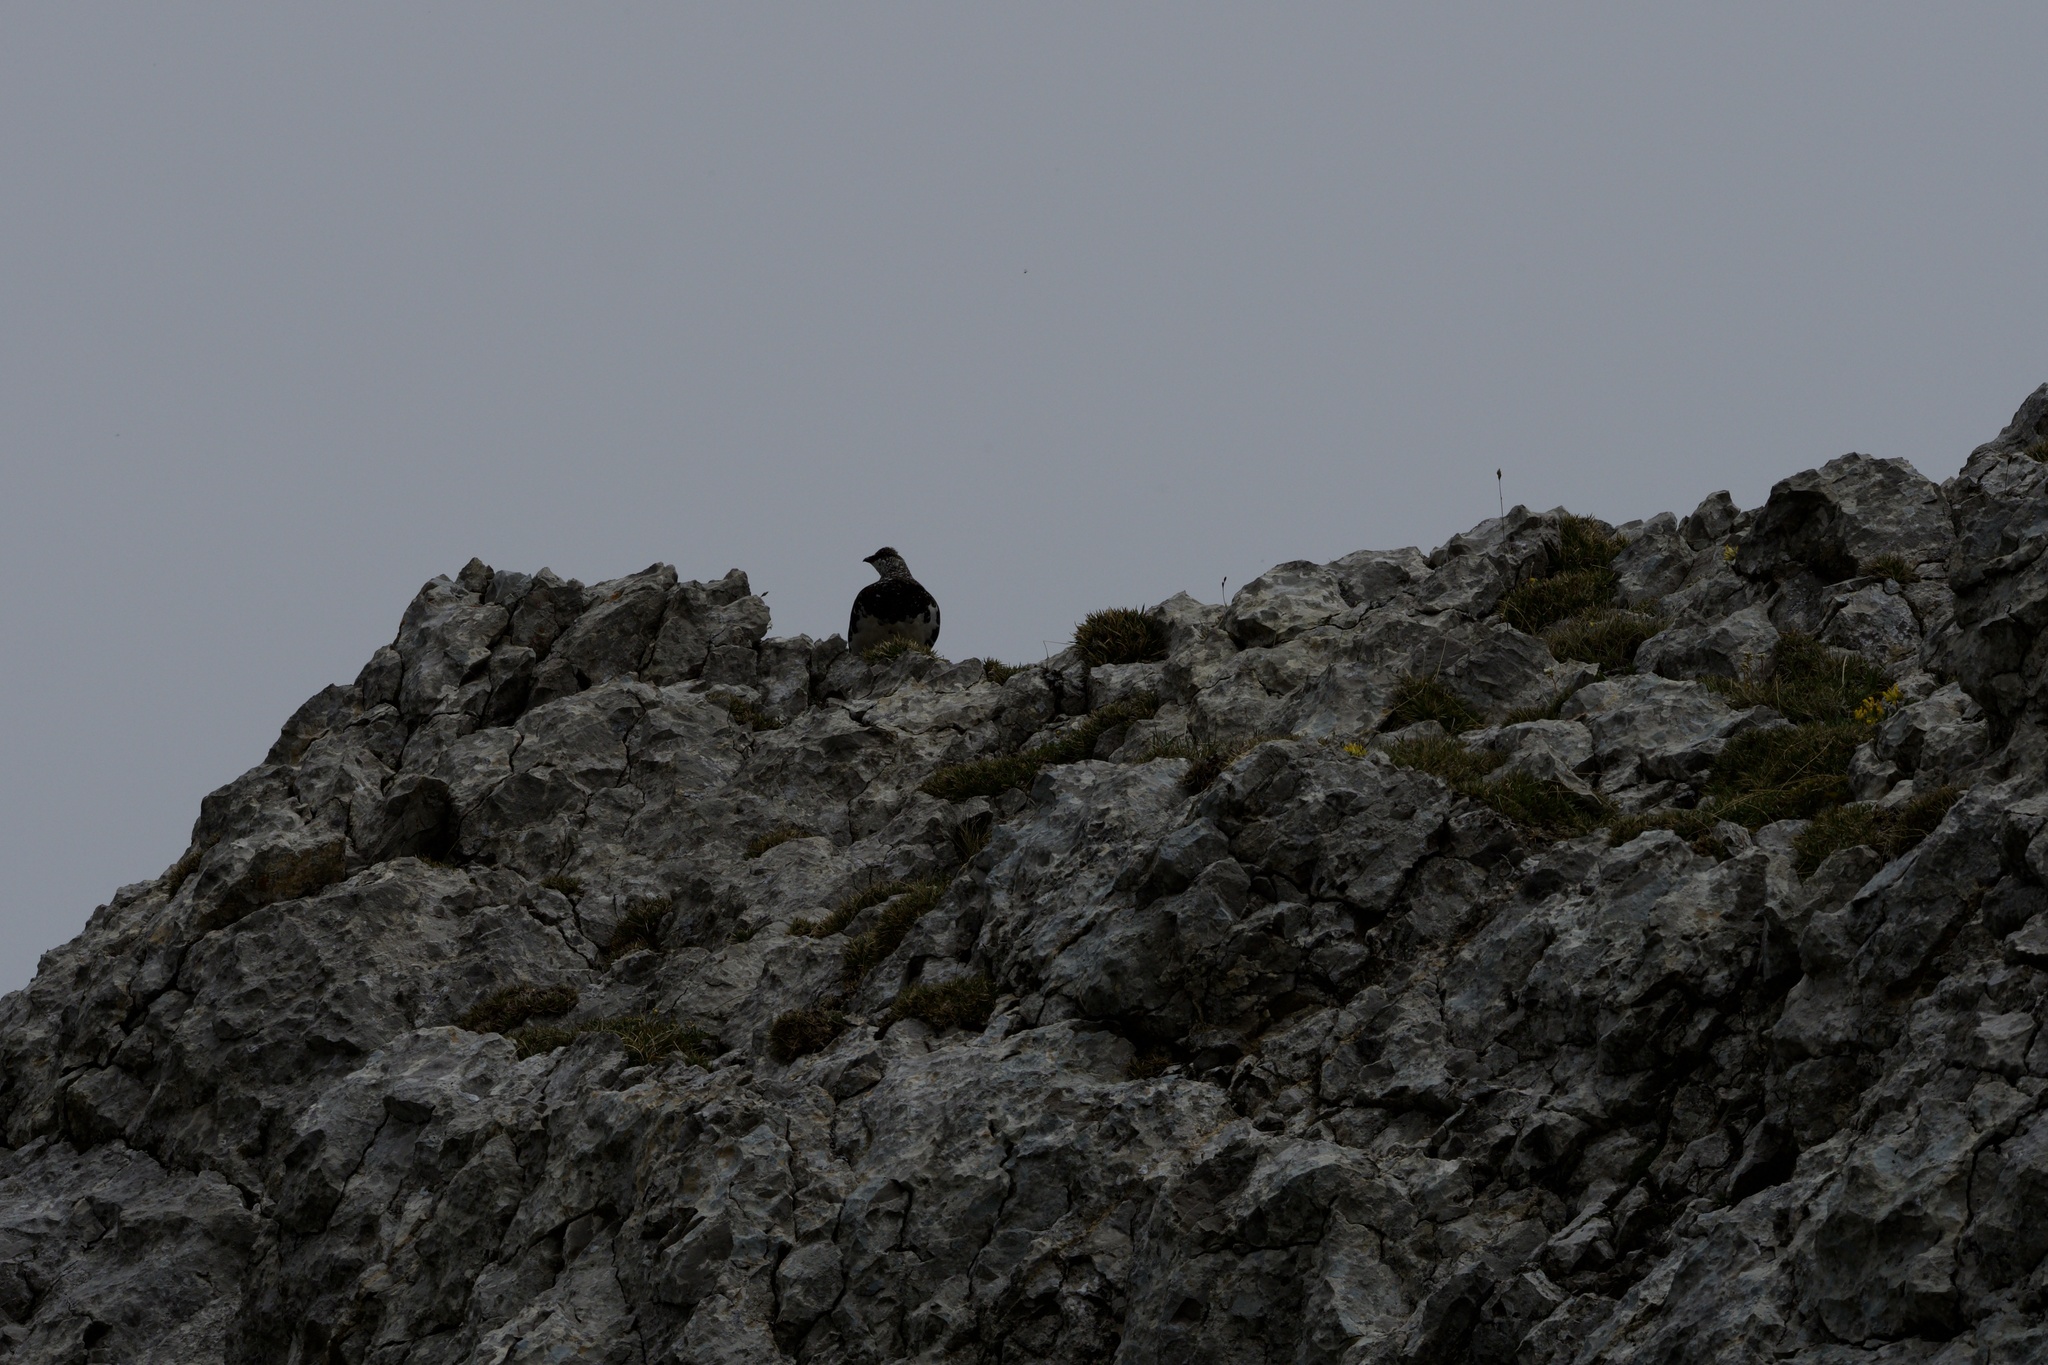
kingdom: Animalia
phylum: Chordata
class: Aves
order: Galliformes
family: Phasianidae
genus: Lagopus
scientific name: Lagopus muta
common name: Rock ptarmigan
